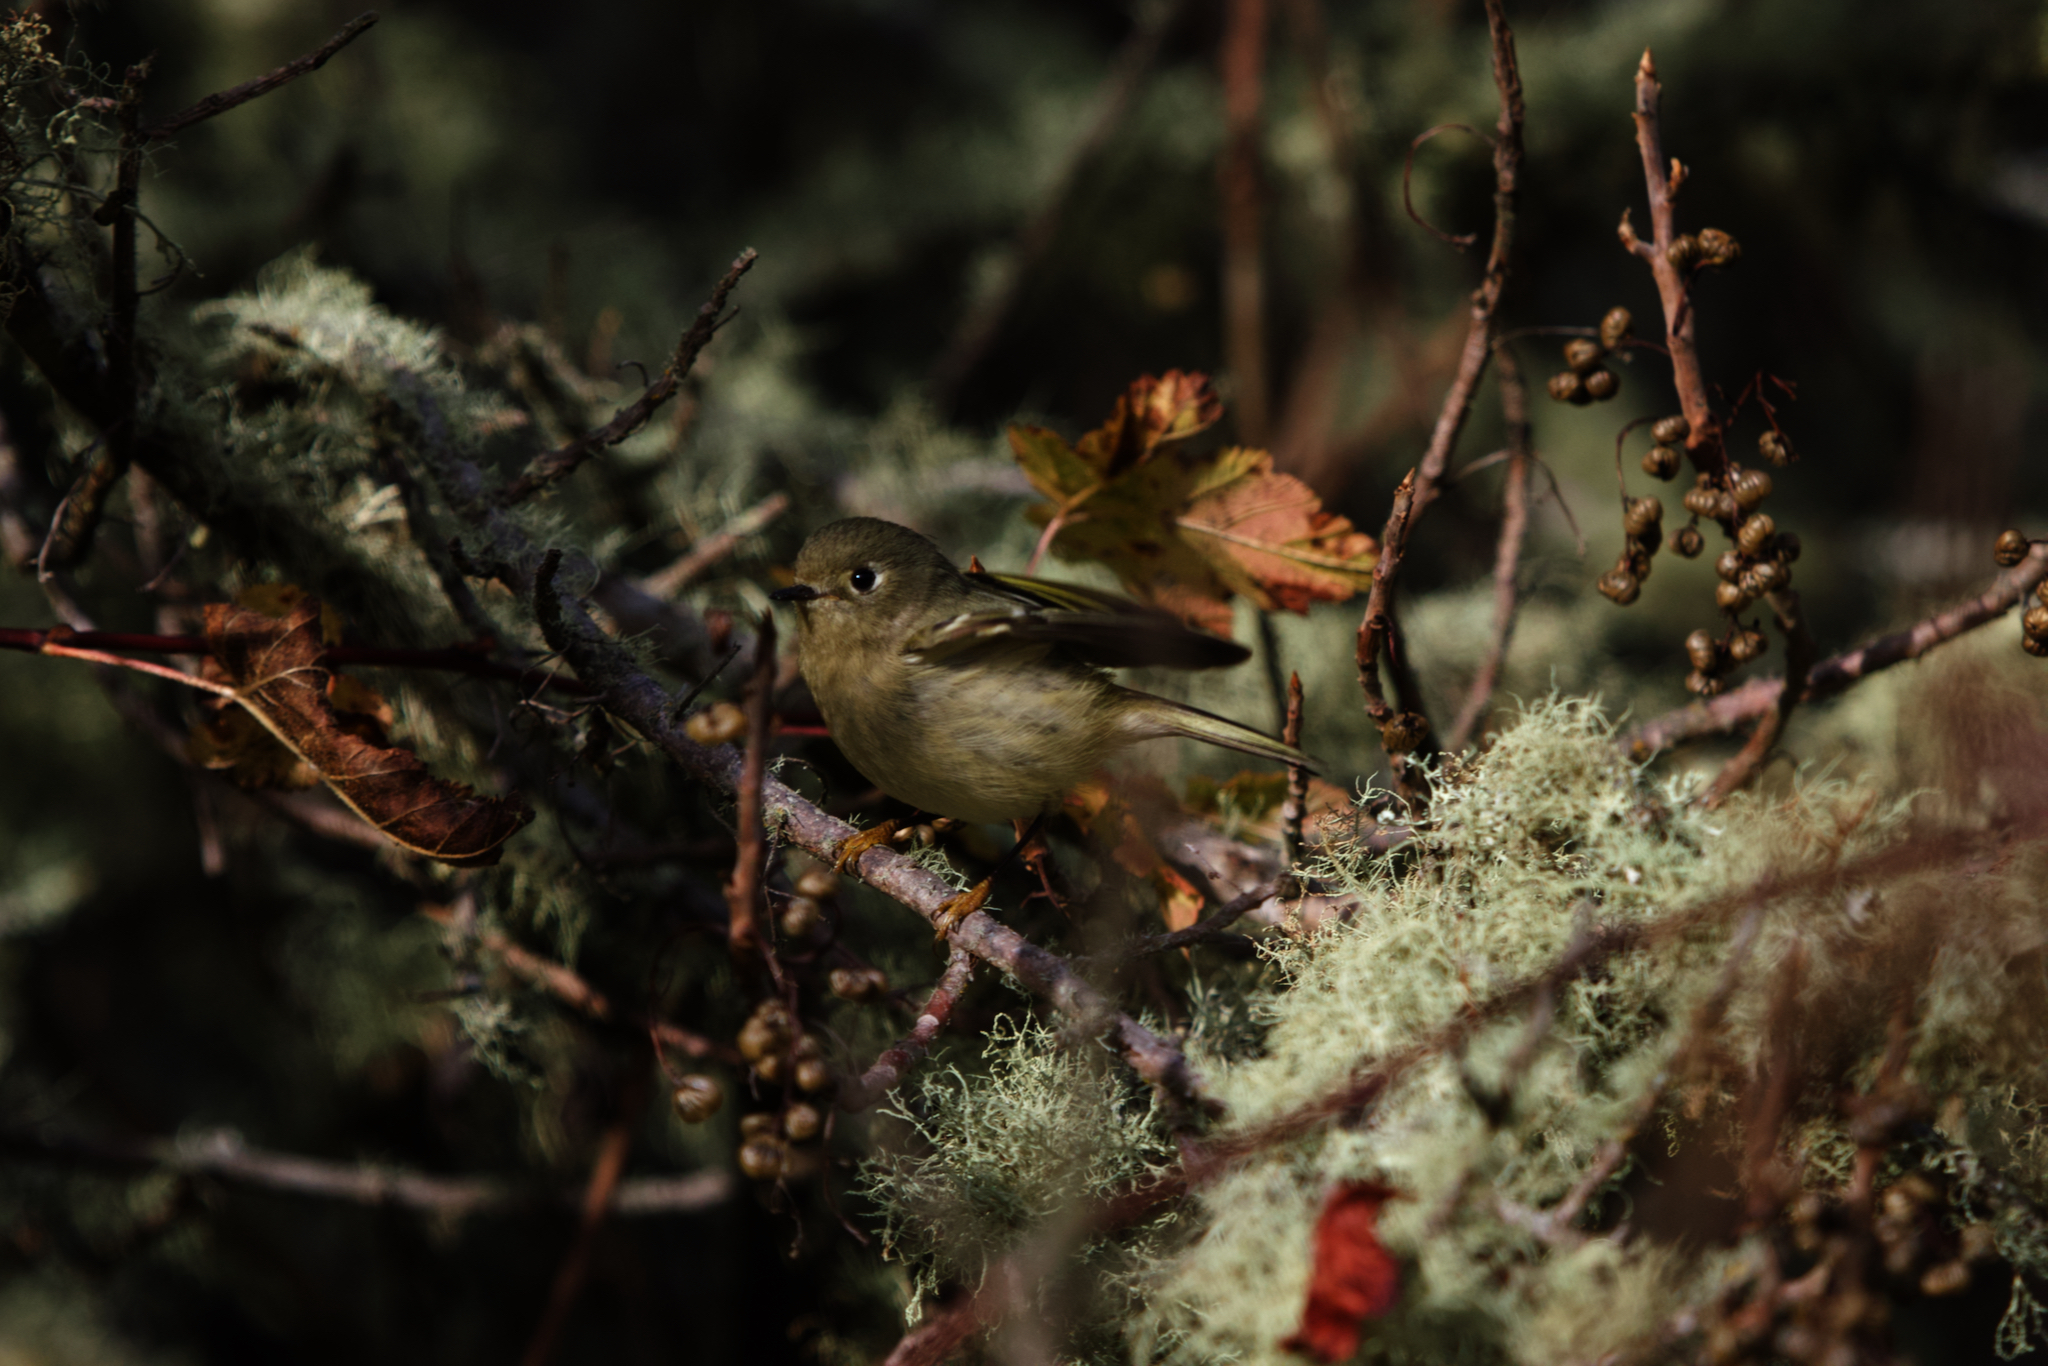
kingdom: Animalia
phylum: Chordata
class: Aves
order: Passeriformes
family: Regulidae
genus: Regulus
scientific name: Regulus calendula
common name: Ruby-crowned kinglet
